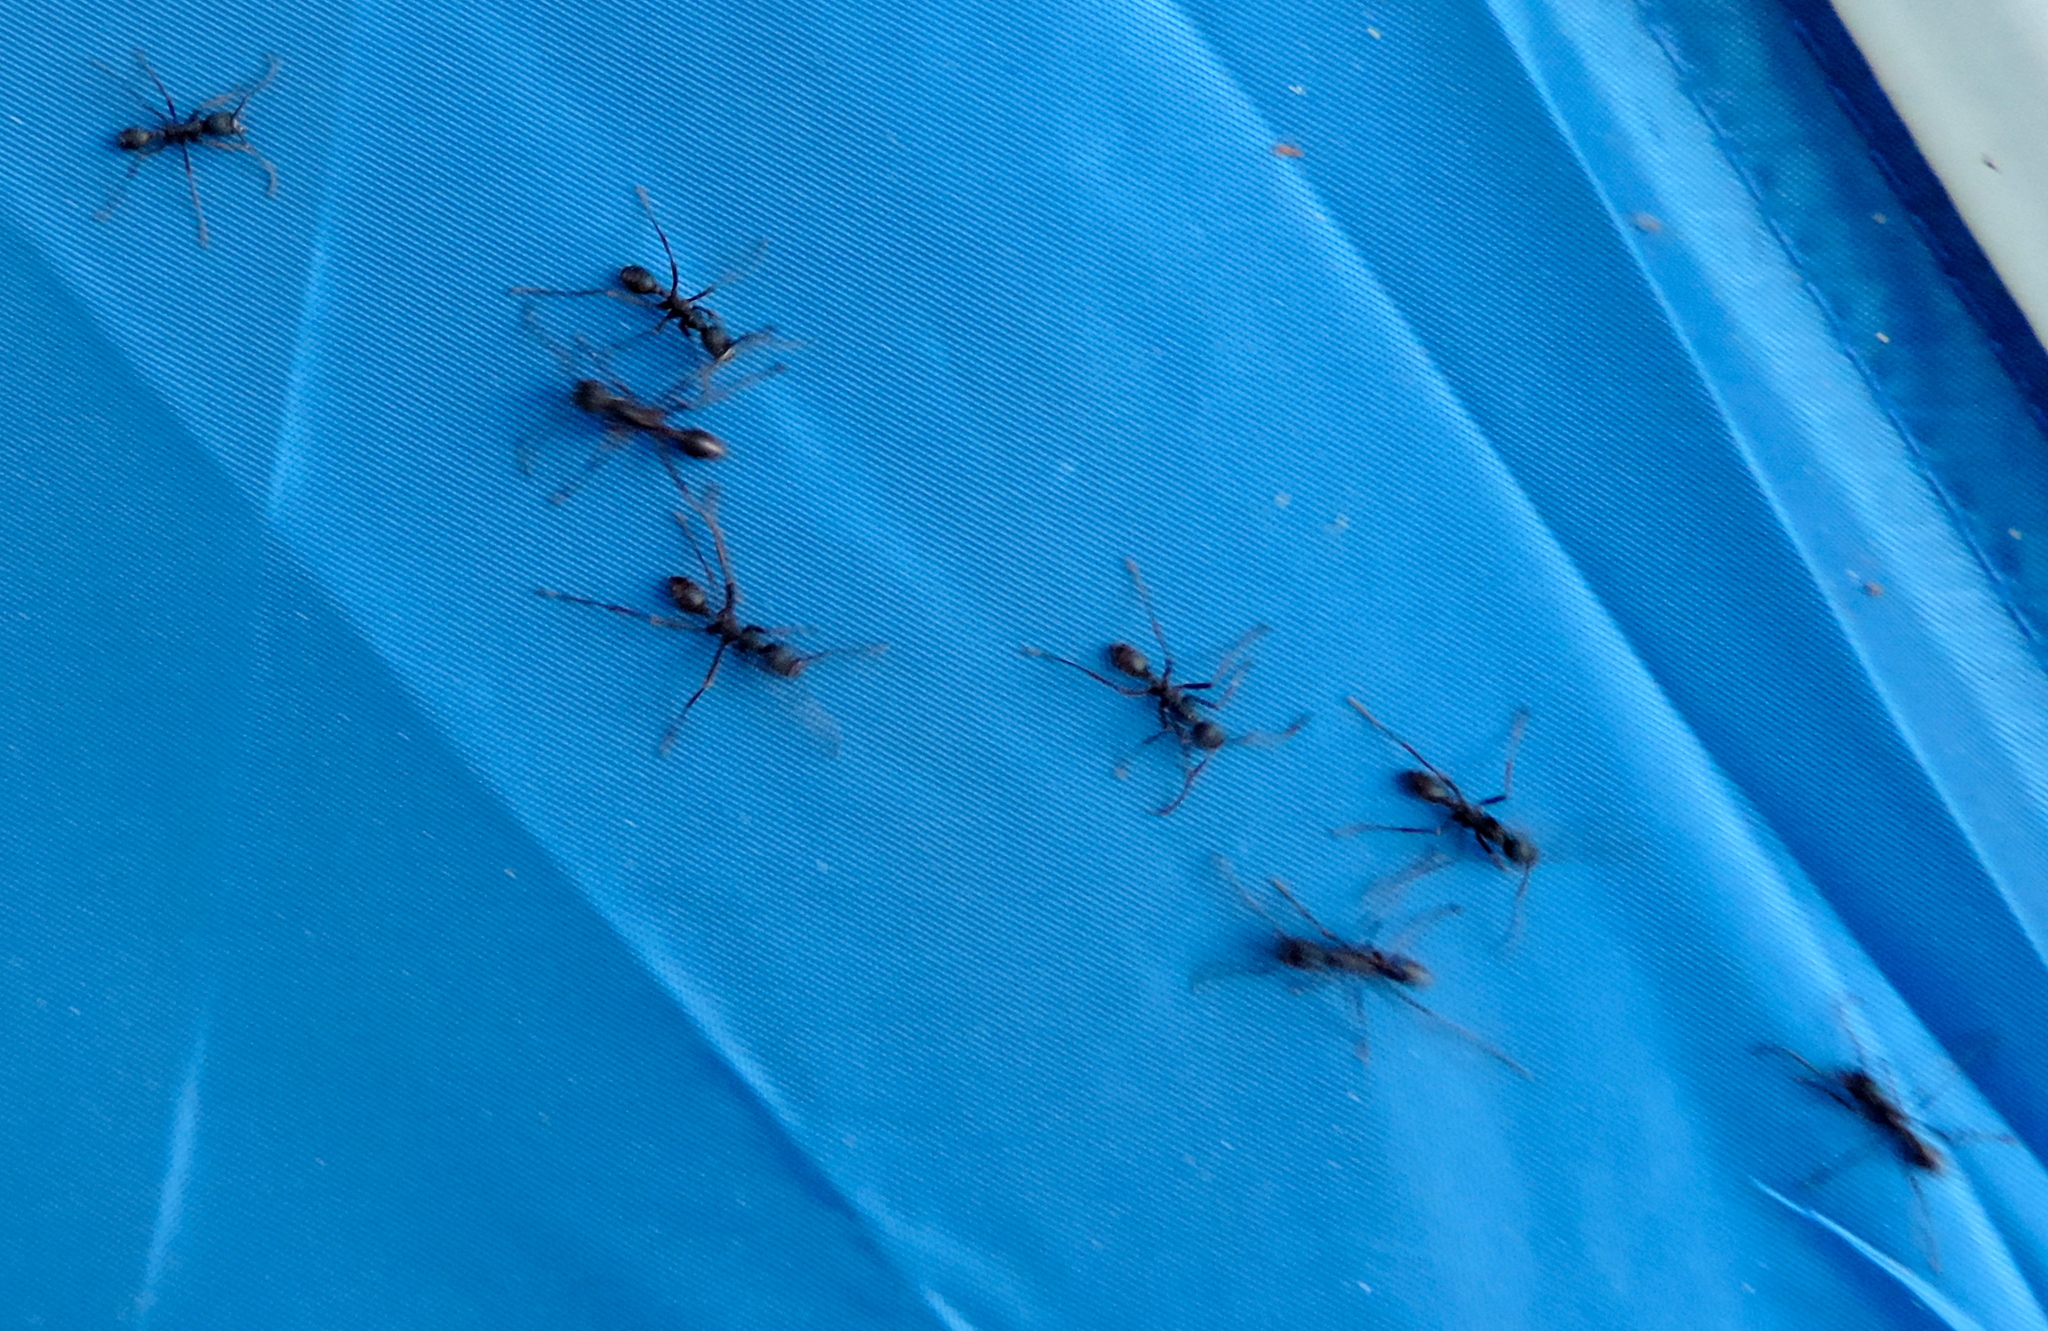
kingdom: Animalia
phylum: Arthropoda
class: Insecta
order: Hymenoptera
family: Formicidae
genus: Neivamyrmex
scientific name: Neivamyrmex
